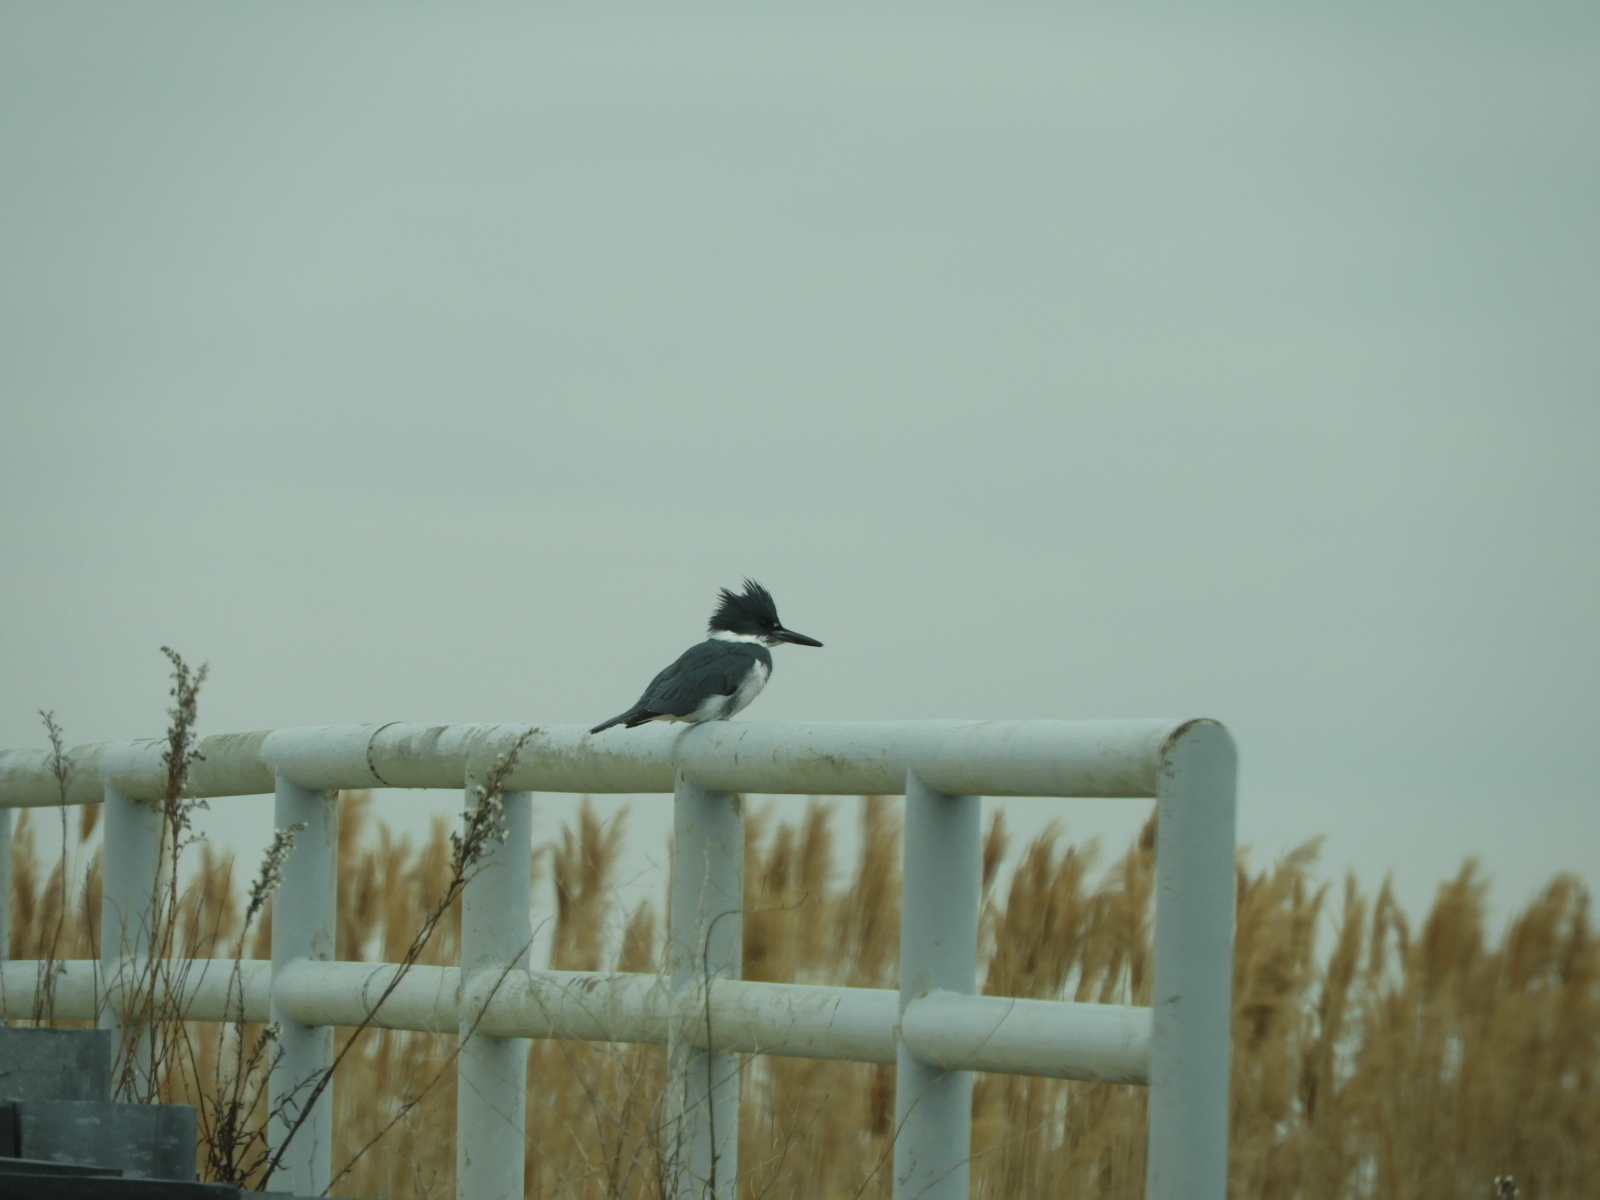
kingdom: Animalia
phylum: Chordata
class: Aves
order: Coraciiformes
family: Alcedinidae
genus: Megaceryle
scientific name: Megaceryle alcyon
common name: Belted kingfisher
